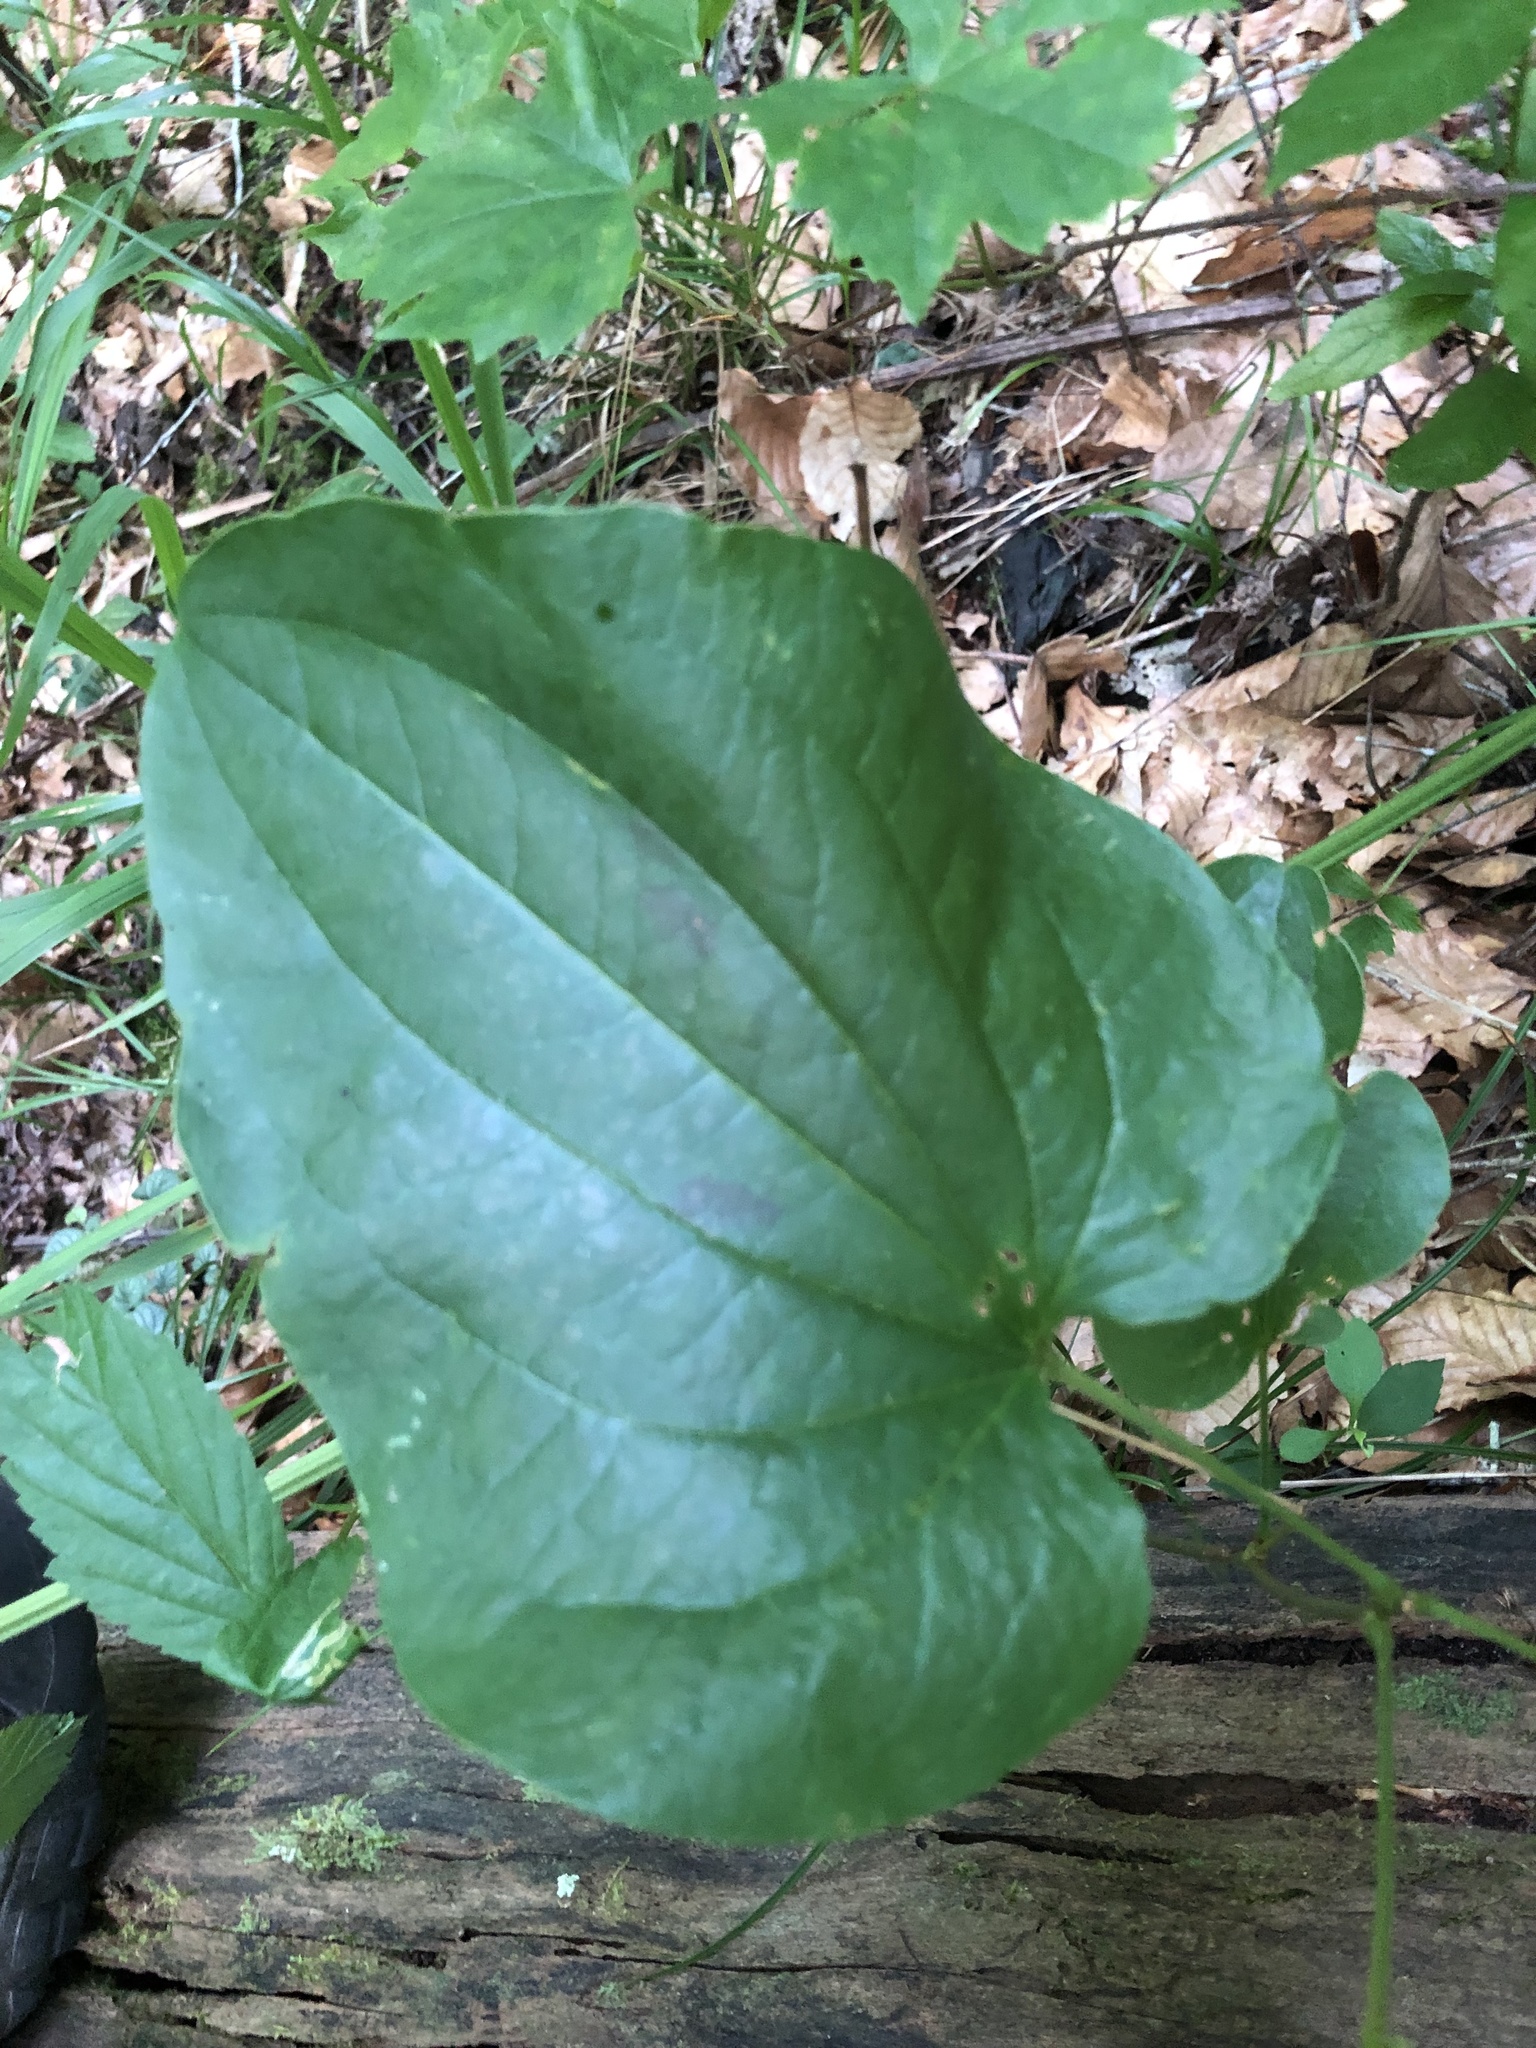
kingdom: Plantae
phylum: Tracheophyta
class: Liliopsida
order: Liliales
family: Smilacaceae
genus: Smilax
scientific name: Smilax lasioneura
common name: Blue ridge carrionflower
